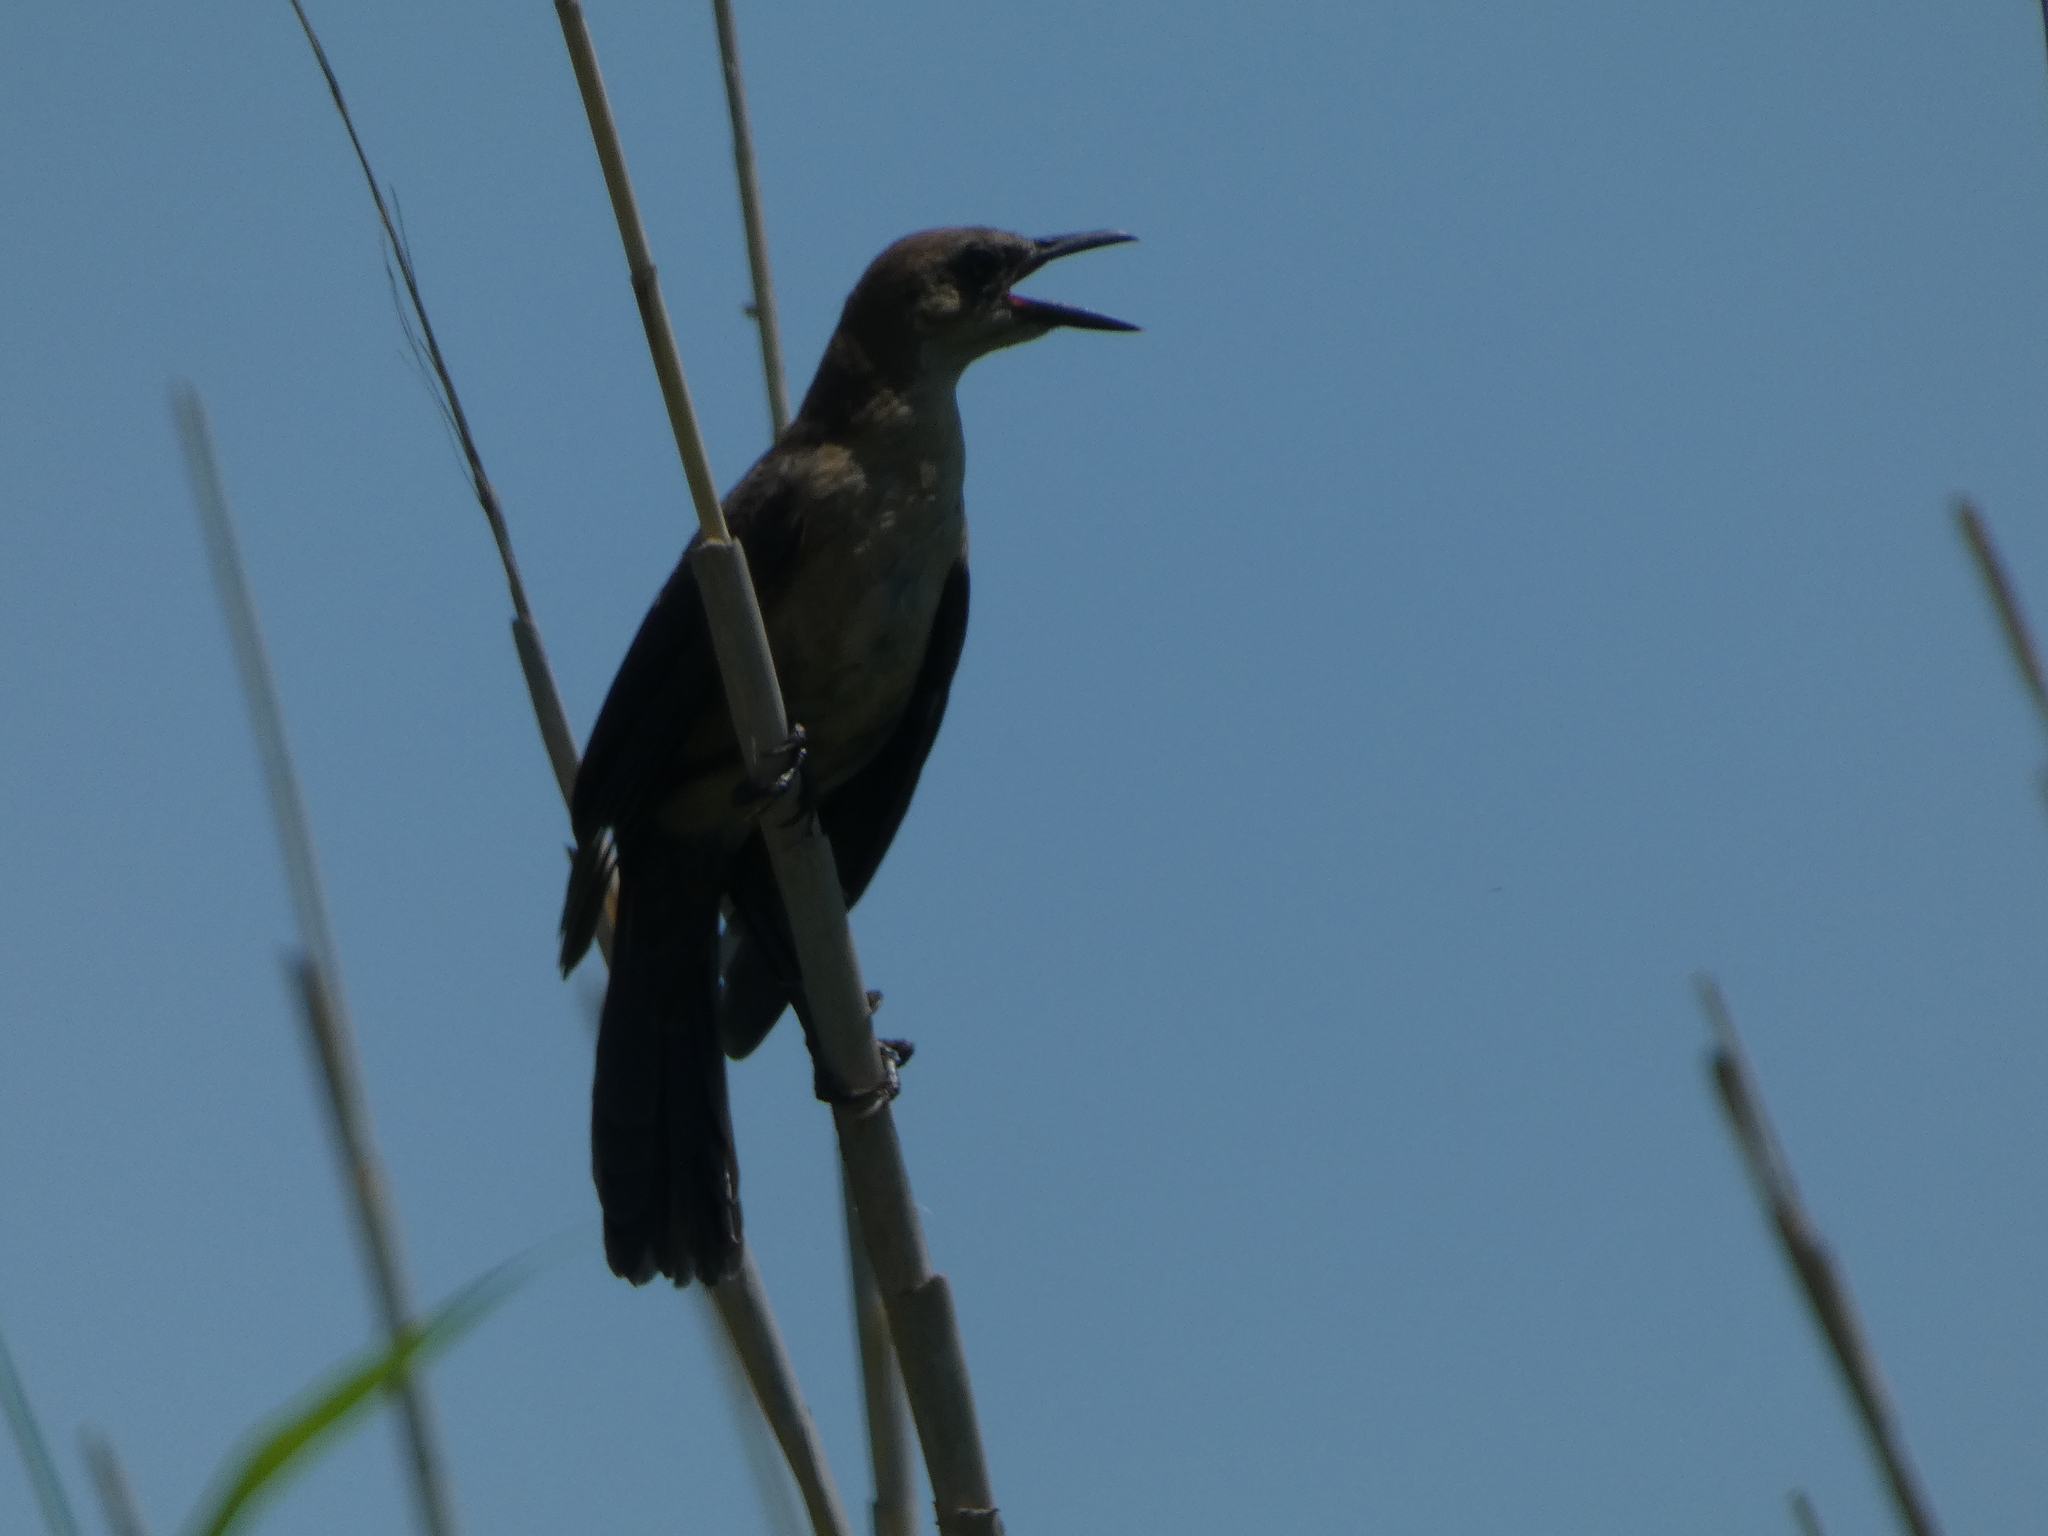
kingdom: Animalia
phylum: Chordata
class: Aves
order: Passeriformes
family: Icteridae
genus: Quiscalus
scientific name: Quiscalus mexicanus
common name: Great-tailed grackle
